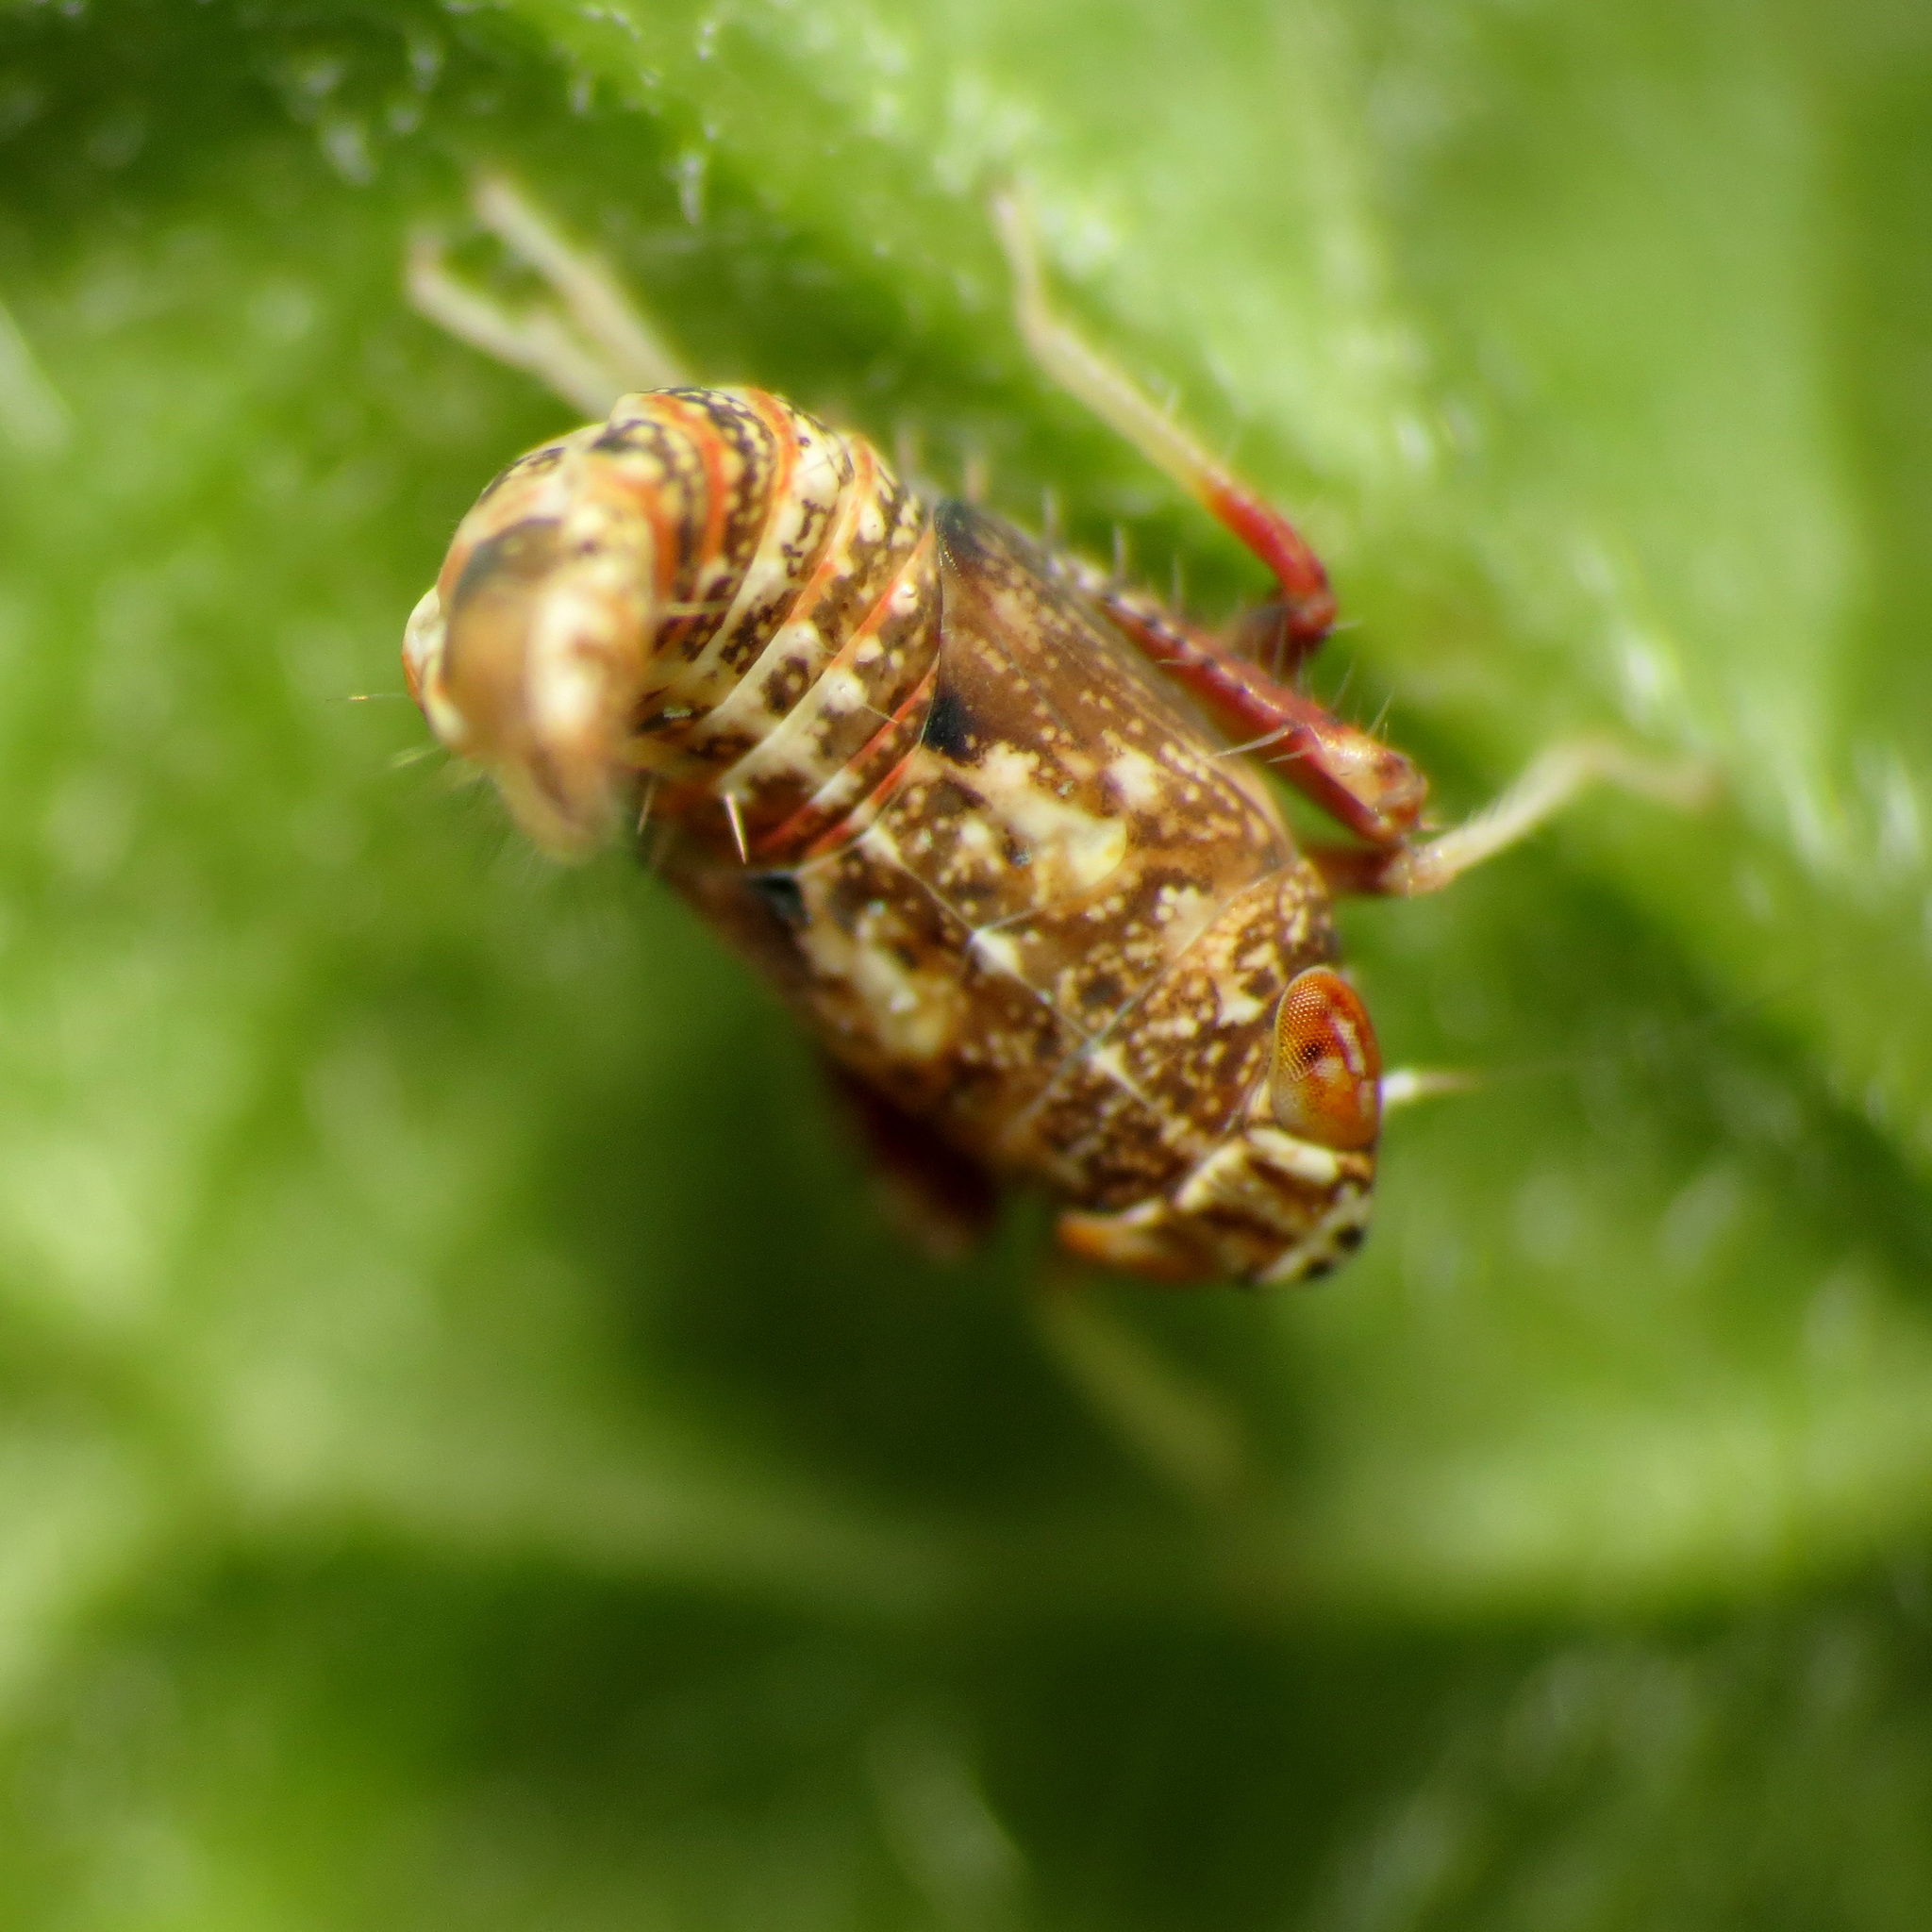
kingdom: Animalia
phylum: Arthropoda
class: Insecta
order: Hemiptera
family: Cicadellidae
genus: Orientus
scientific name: Orientus ishidae
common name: Japanese leafhopper
